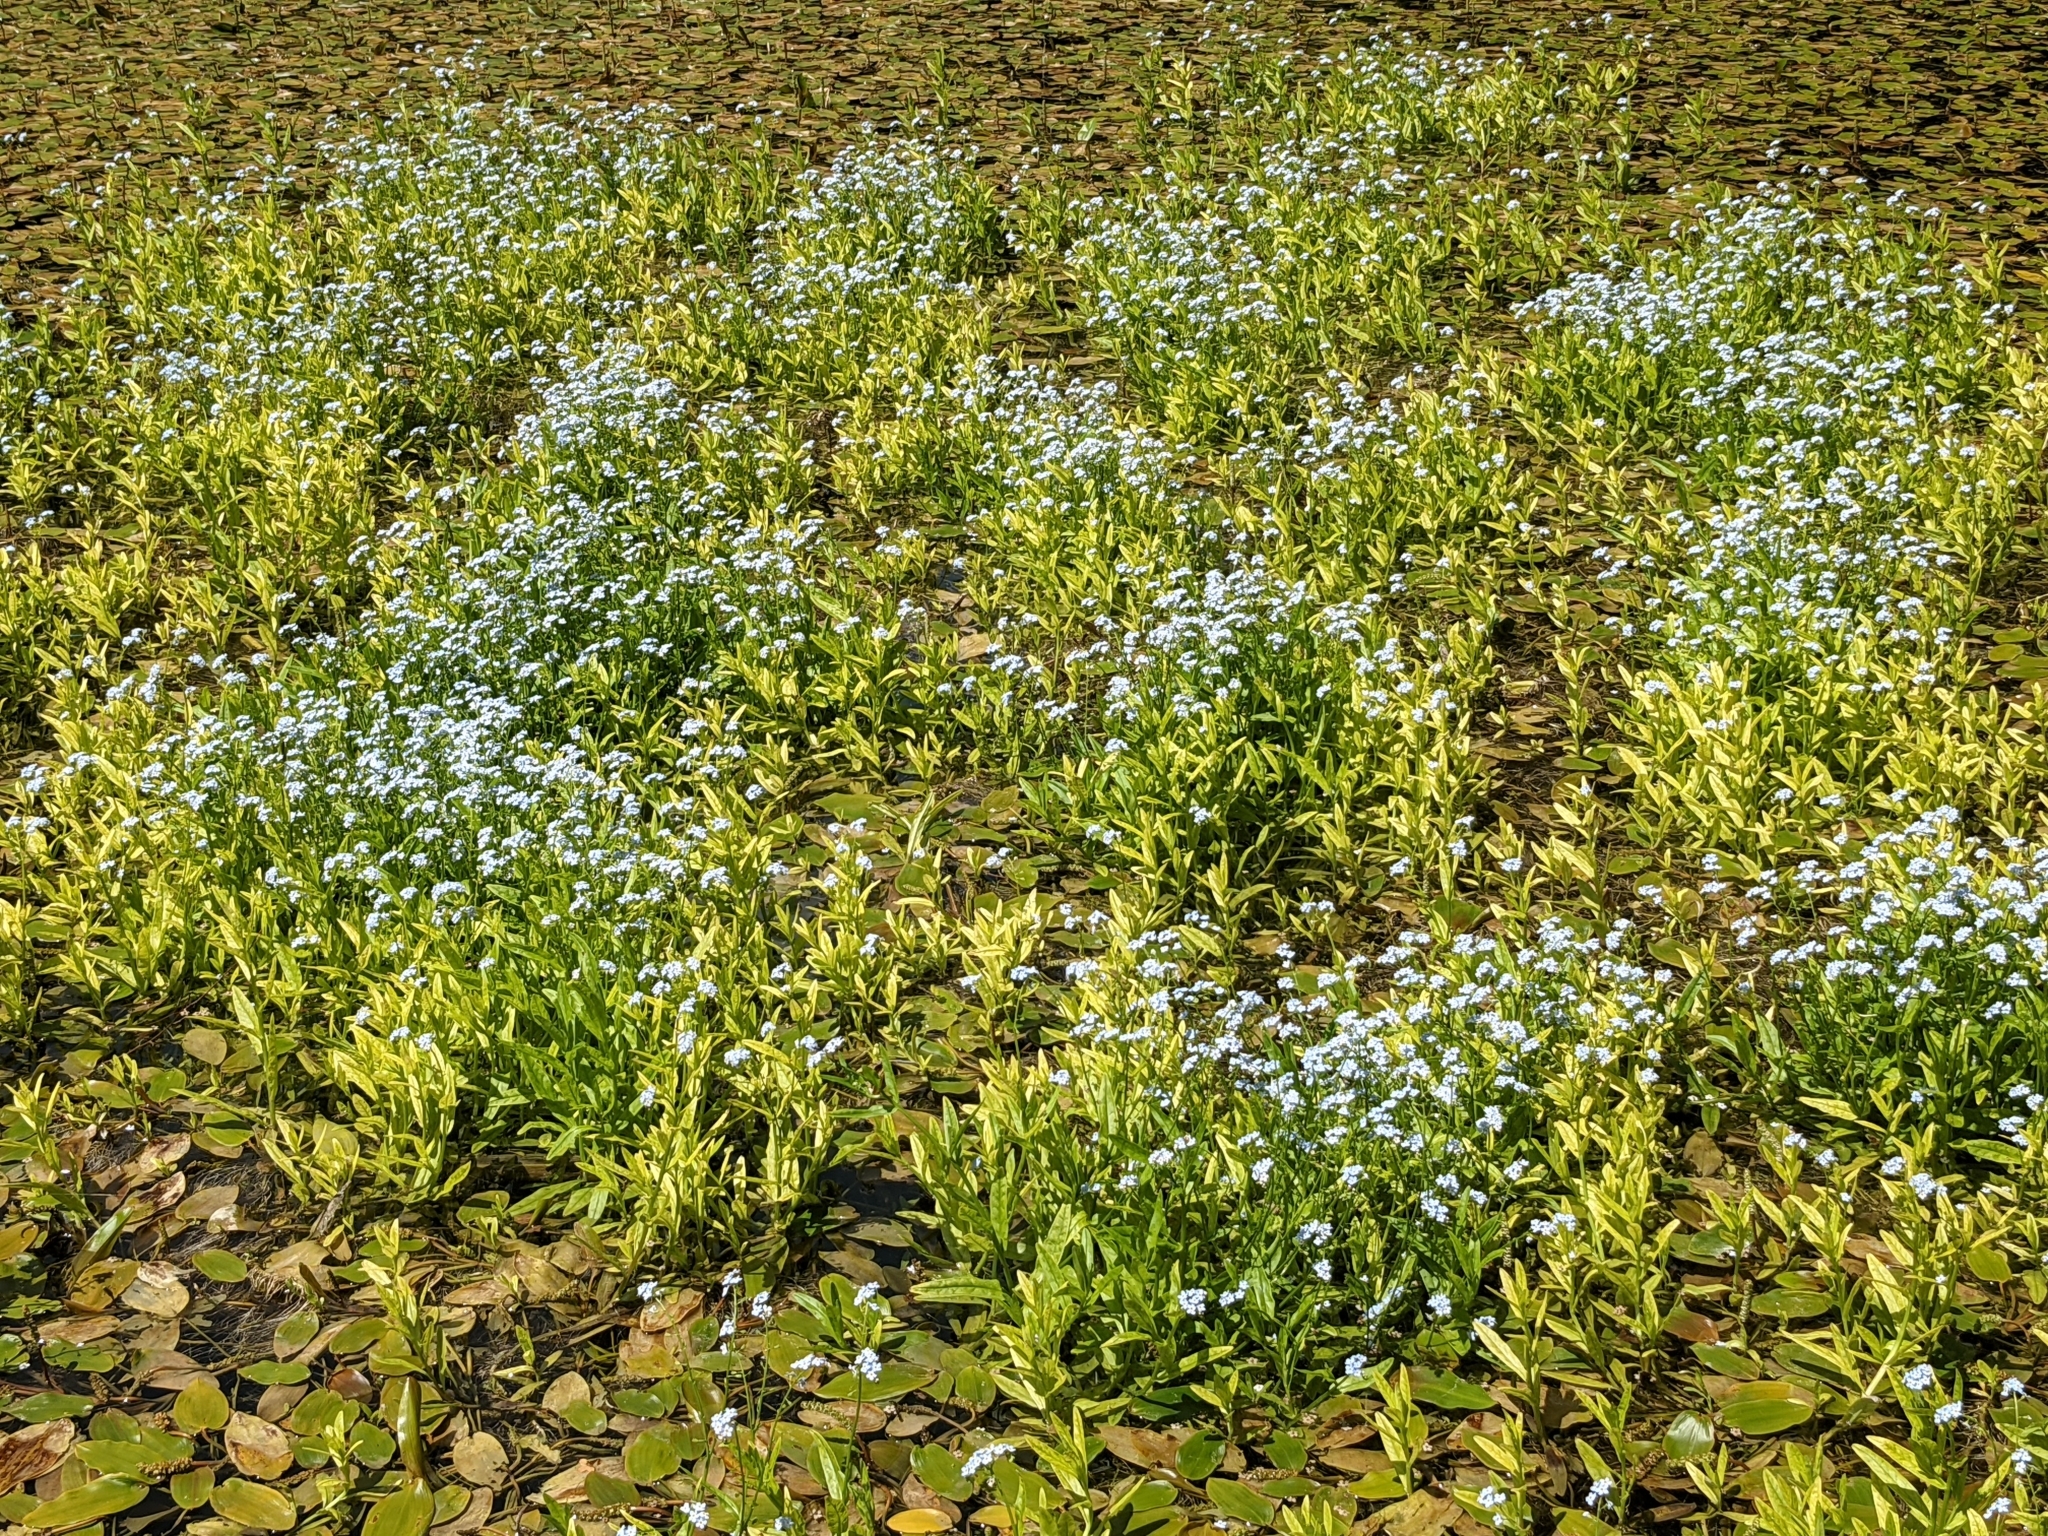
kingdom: Plantae
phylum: Tracheophyta
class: Magnoliopsida
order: Boraginales
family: Boraginaceae
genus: Myosotis
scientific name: Myosotis scorpioides
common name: Water forget-me-not
